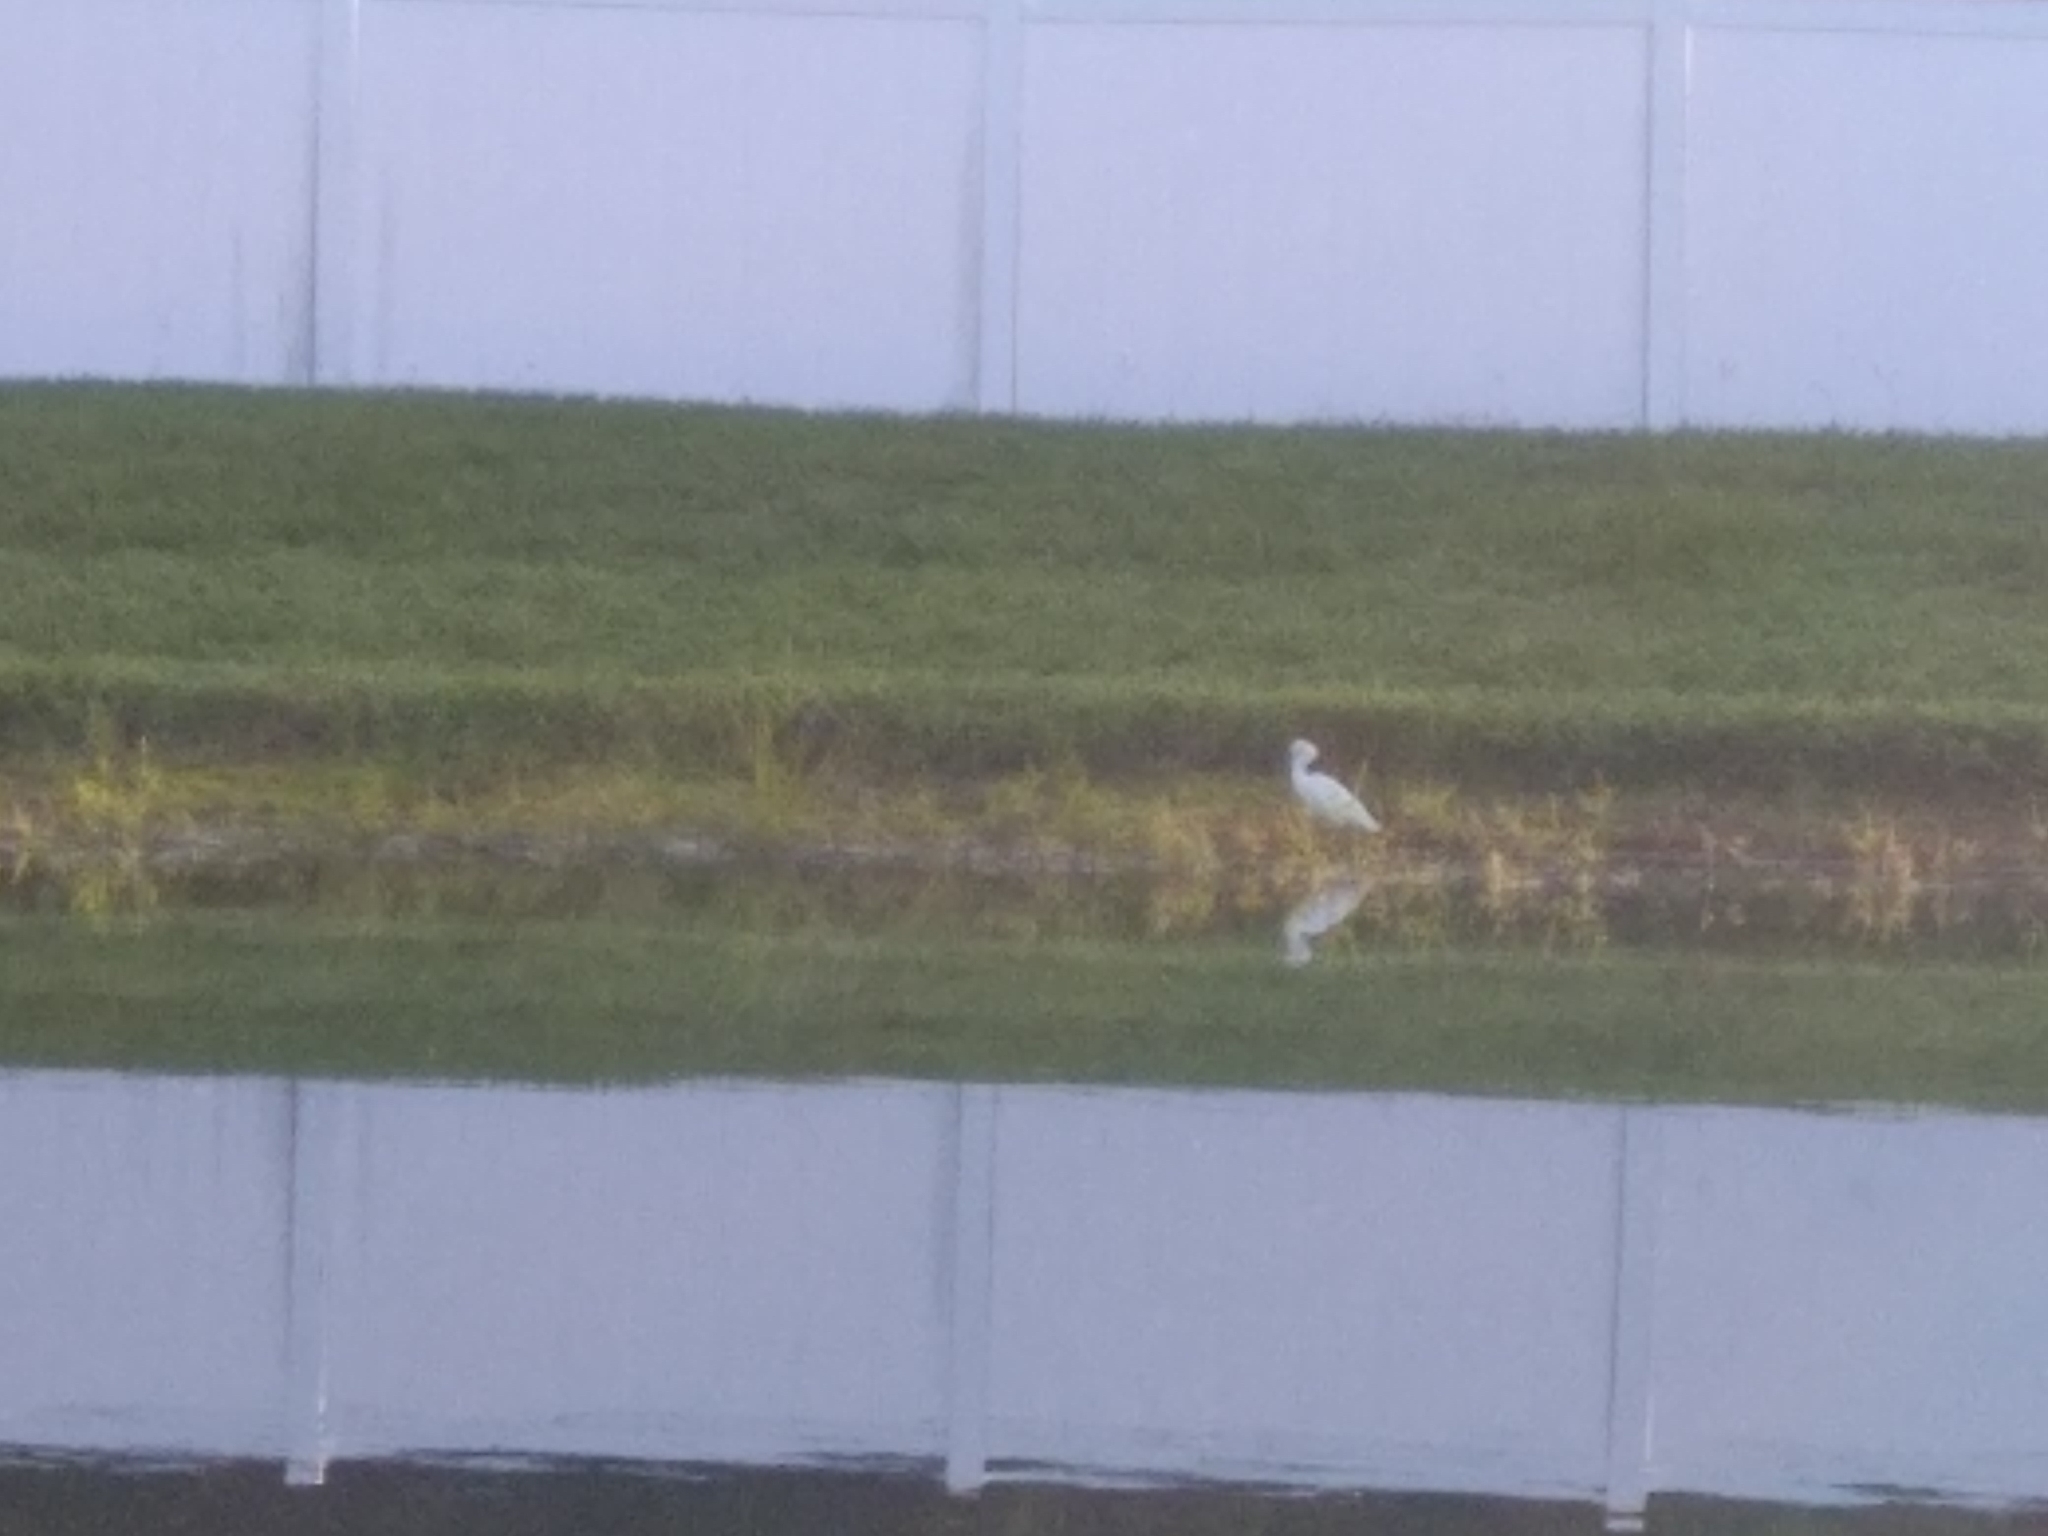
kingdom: Animalia
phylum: Chordata
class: Aves
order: Pelecaniformes
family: Ardeidae
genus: Egretta
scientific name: Egretta thula
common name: Snowy egret
